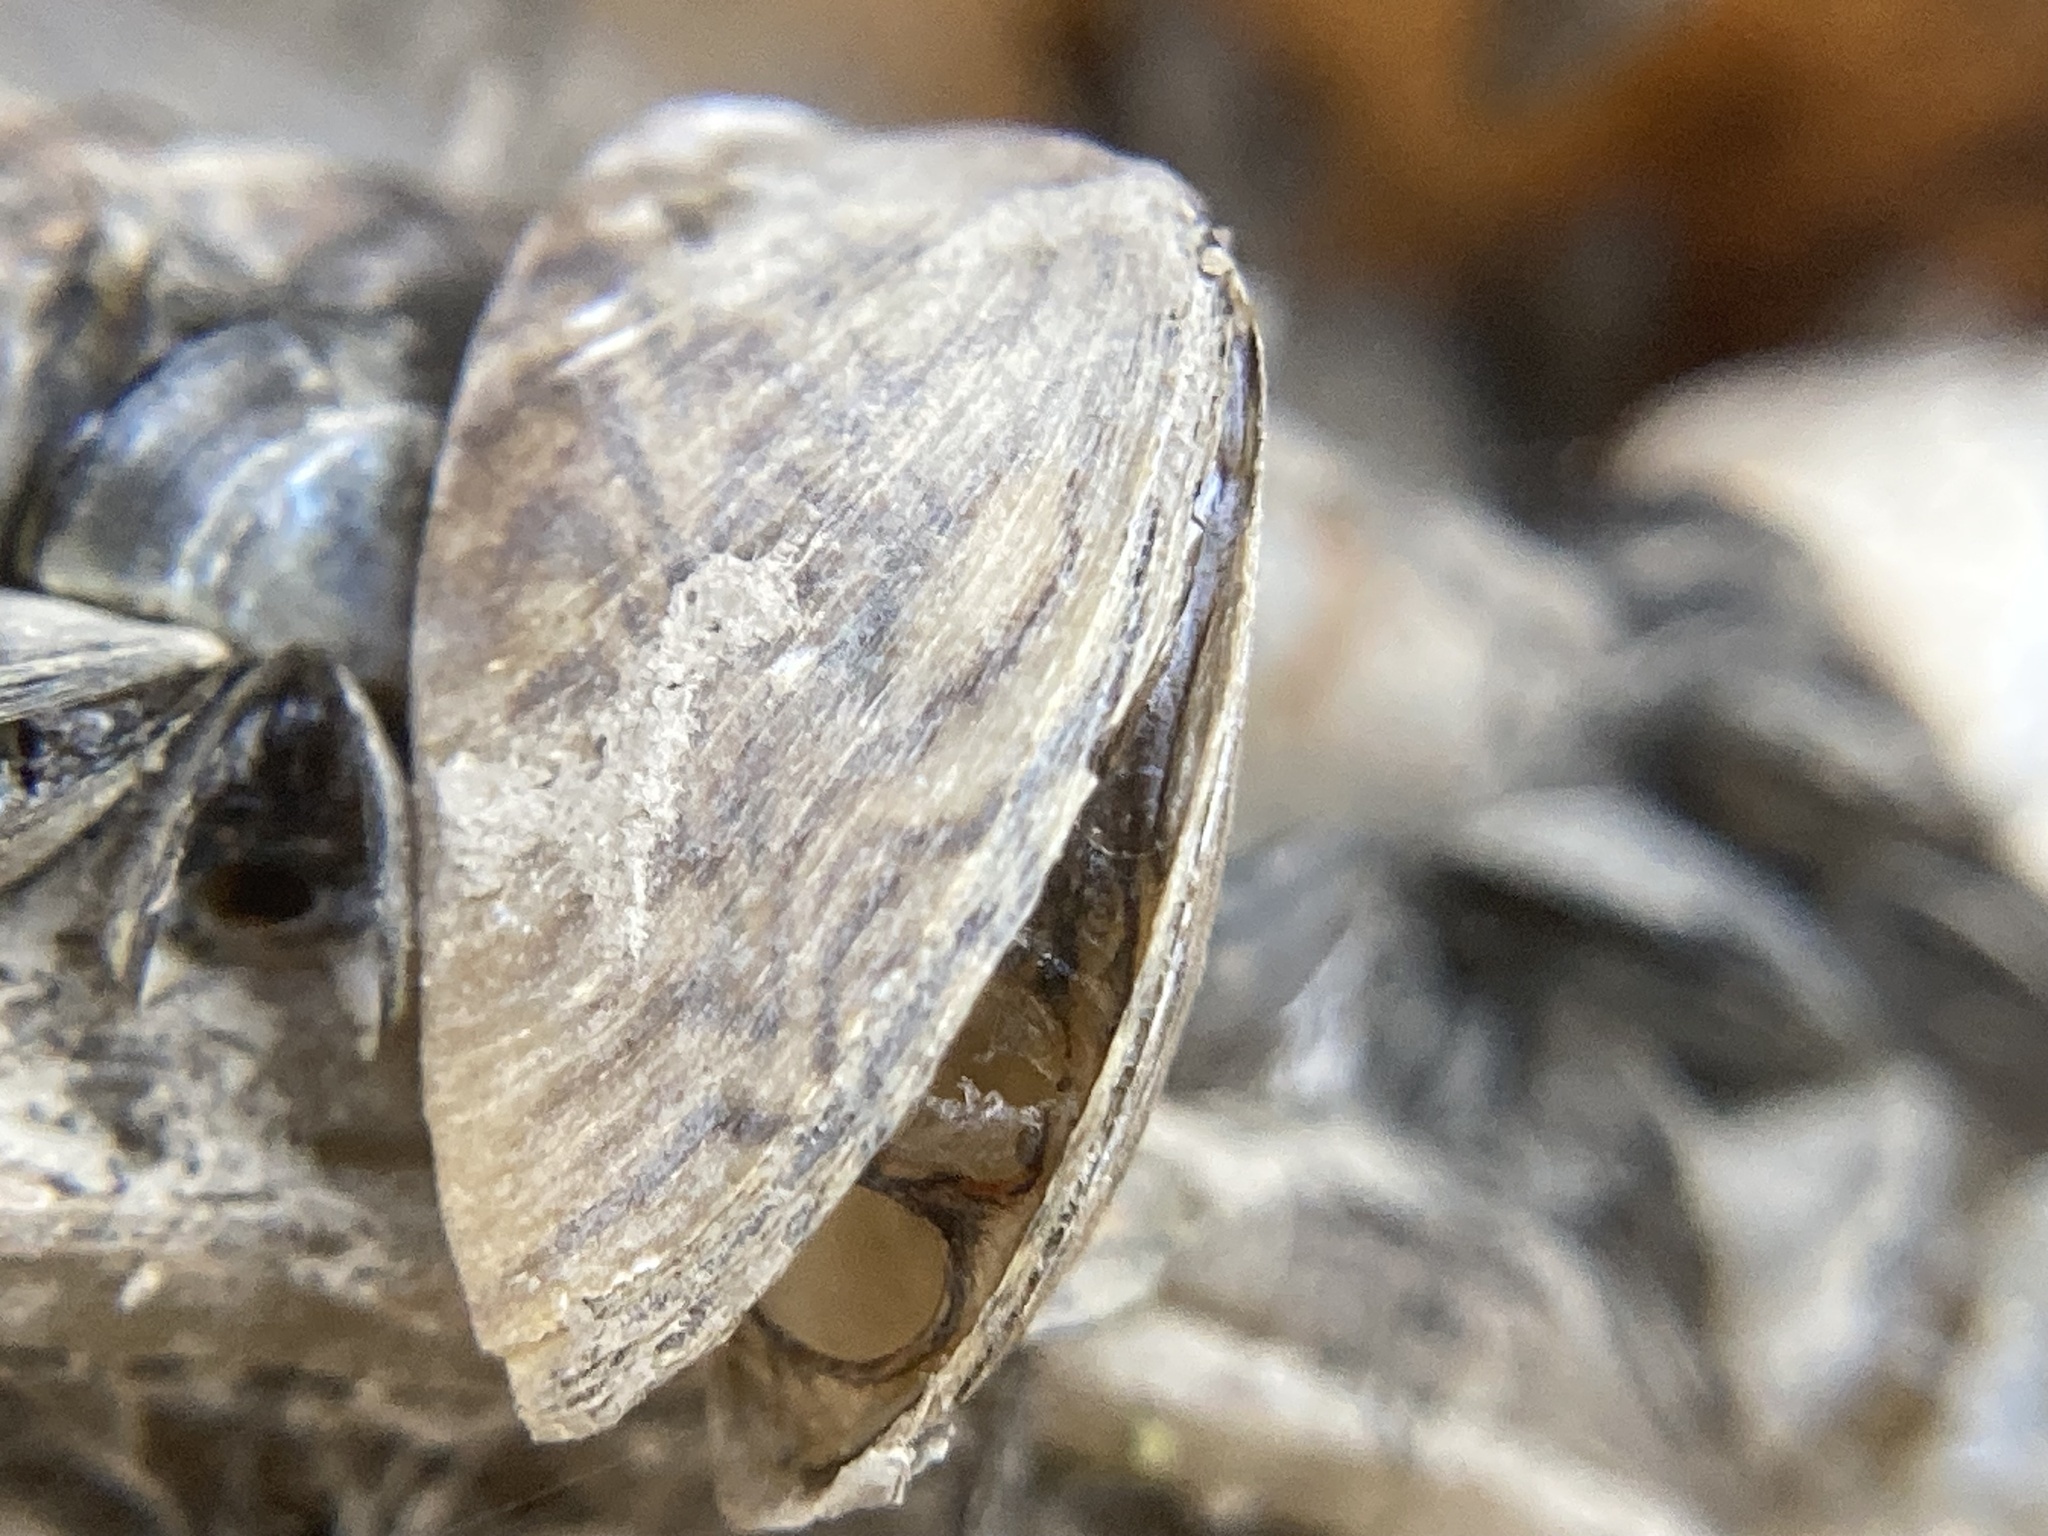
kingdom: Animalia
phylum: Mollusca
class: Bivalvia
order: Myida
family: Dreissenidae
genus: Dreissena
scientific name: Dreissena polymorpha
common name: Zebra mussel
